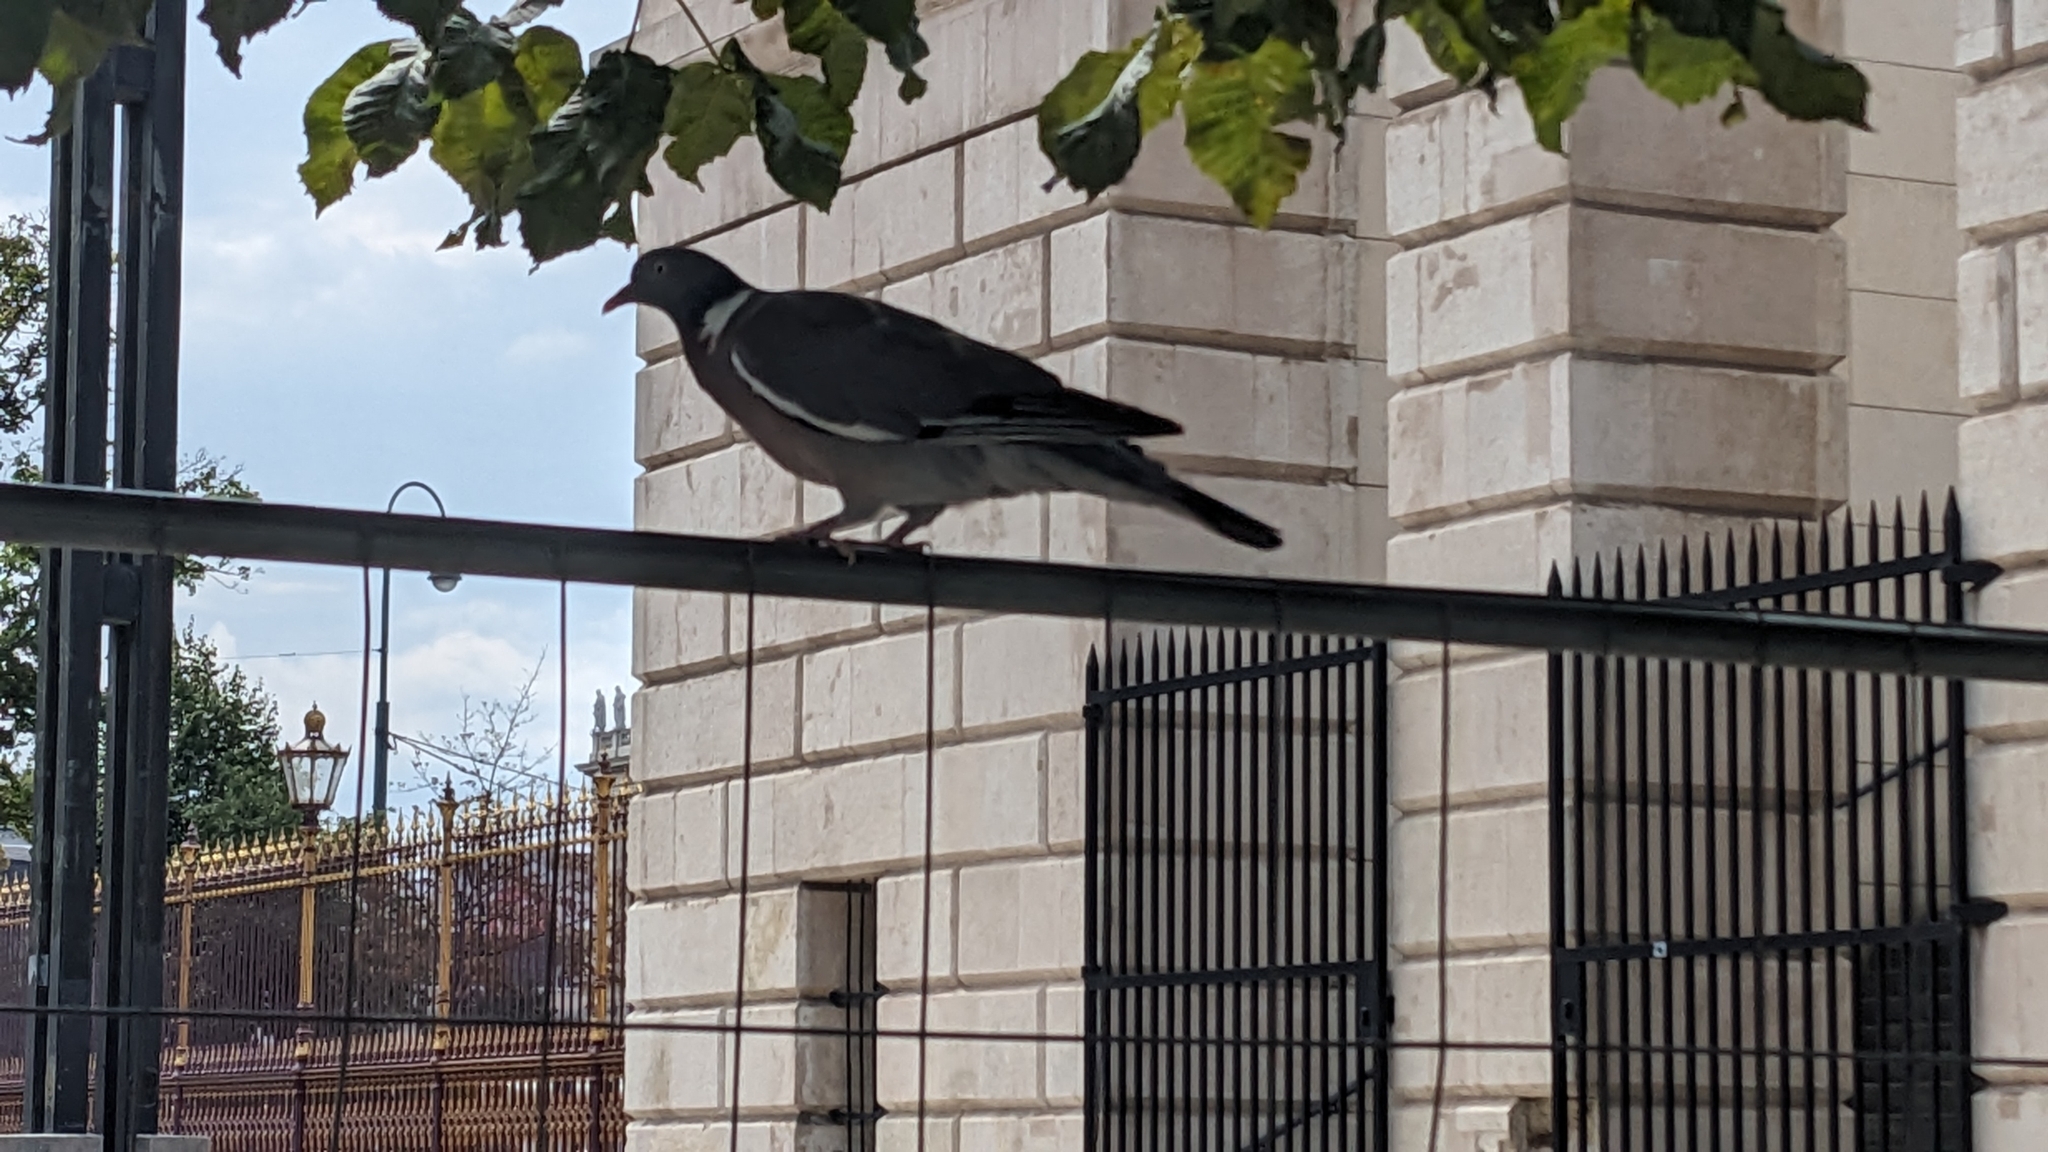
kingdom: Animalia
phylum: Chordata
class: Aves
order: Columbiformes
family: Columbidae
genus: Columba
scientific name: Columba palumbus
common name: Common wood pigeon
